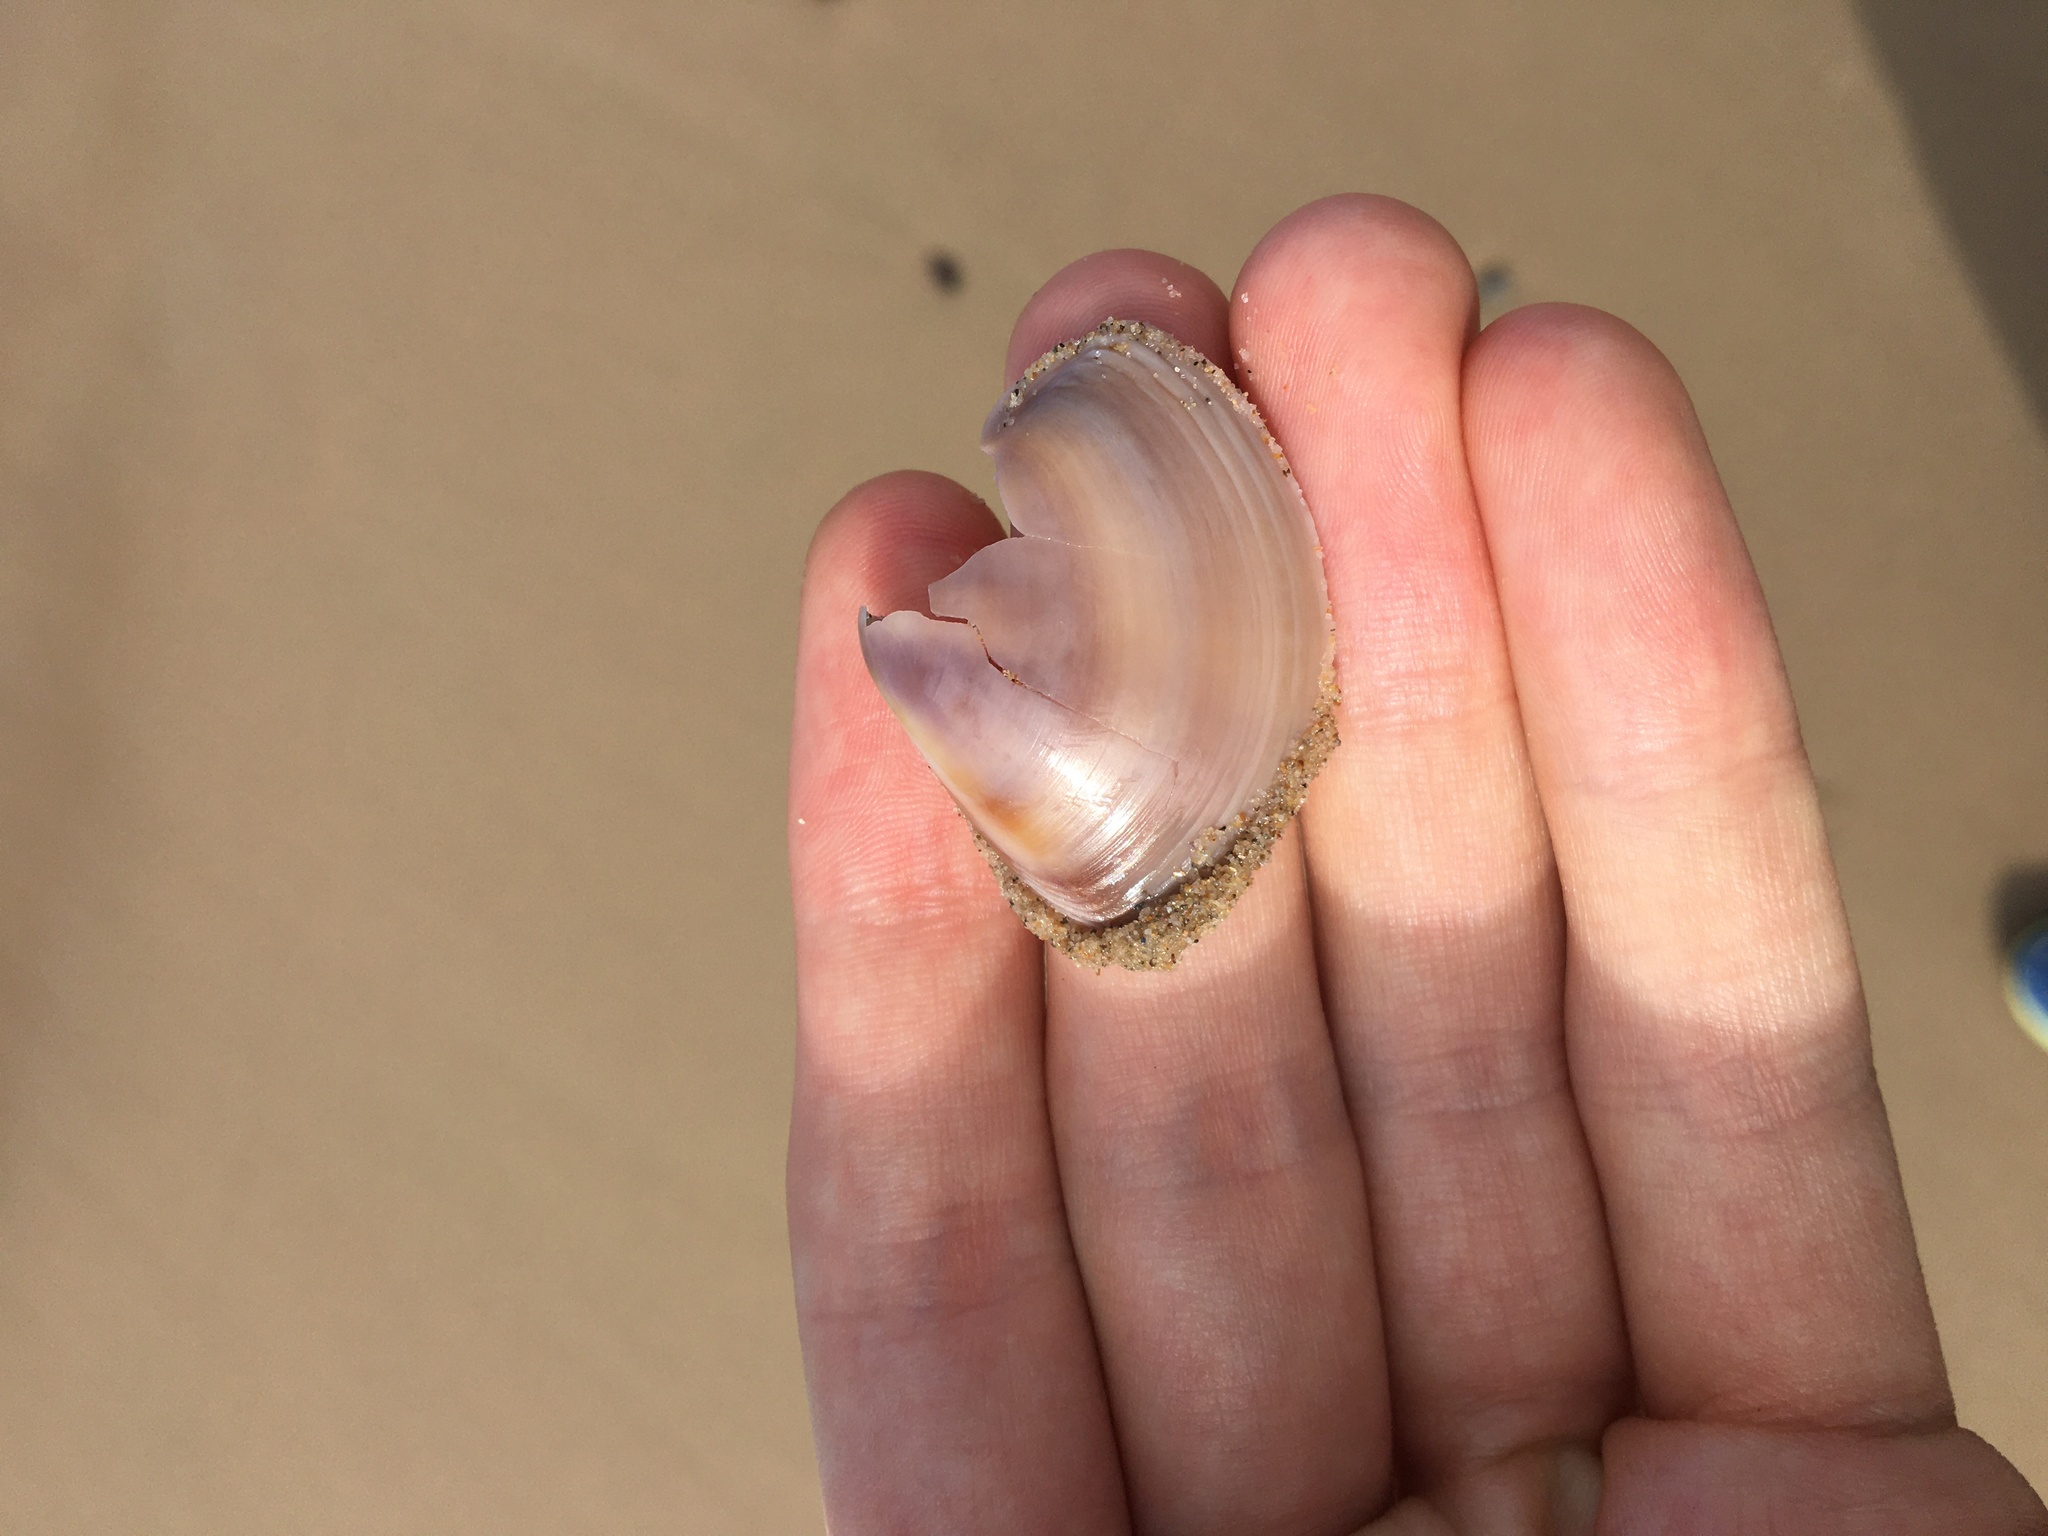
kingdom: Animalia
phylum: Mollusca
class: Bivalvia
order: Venerida
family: Mactridae
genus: Austromactra
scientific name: Austromactra contraria
